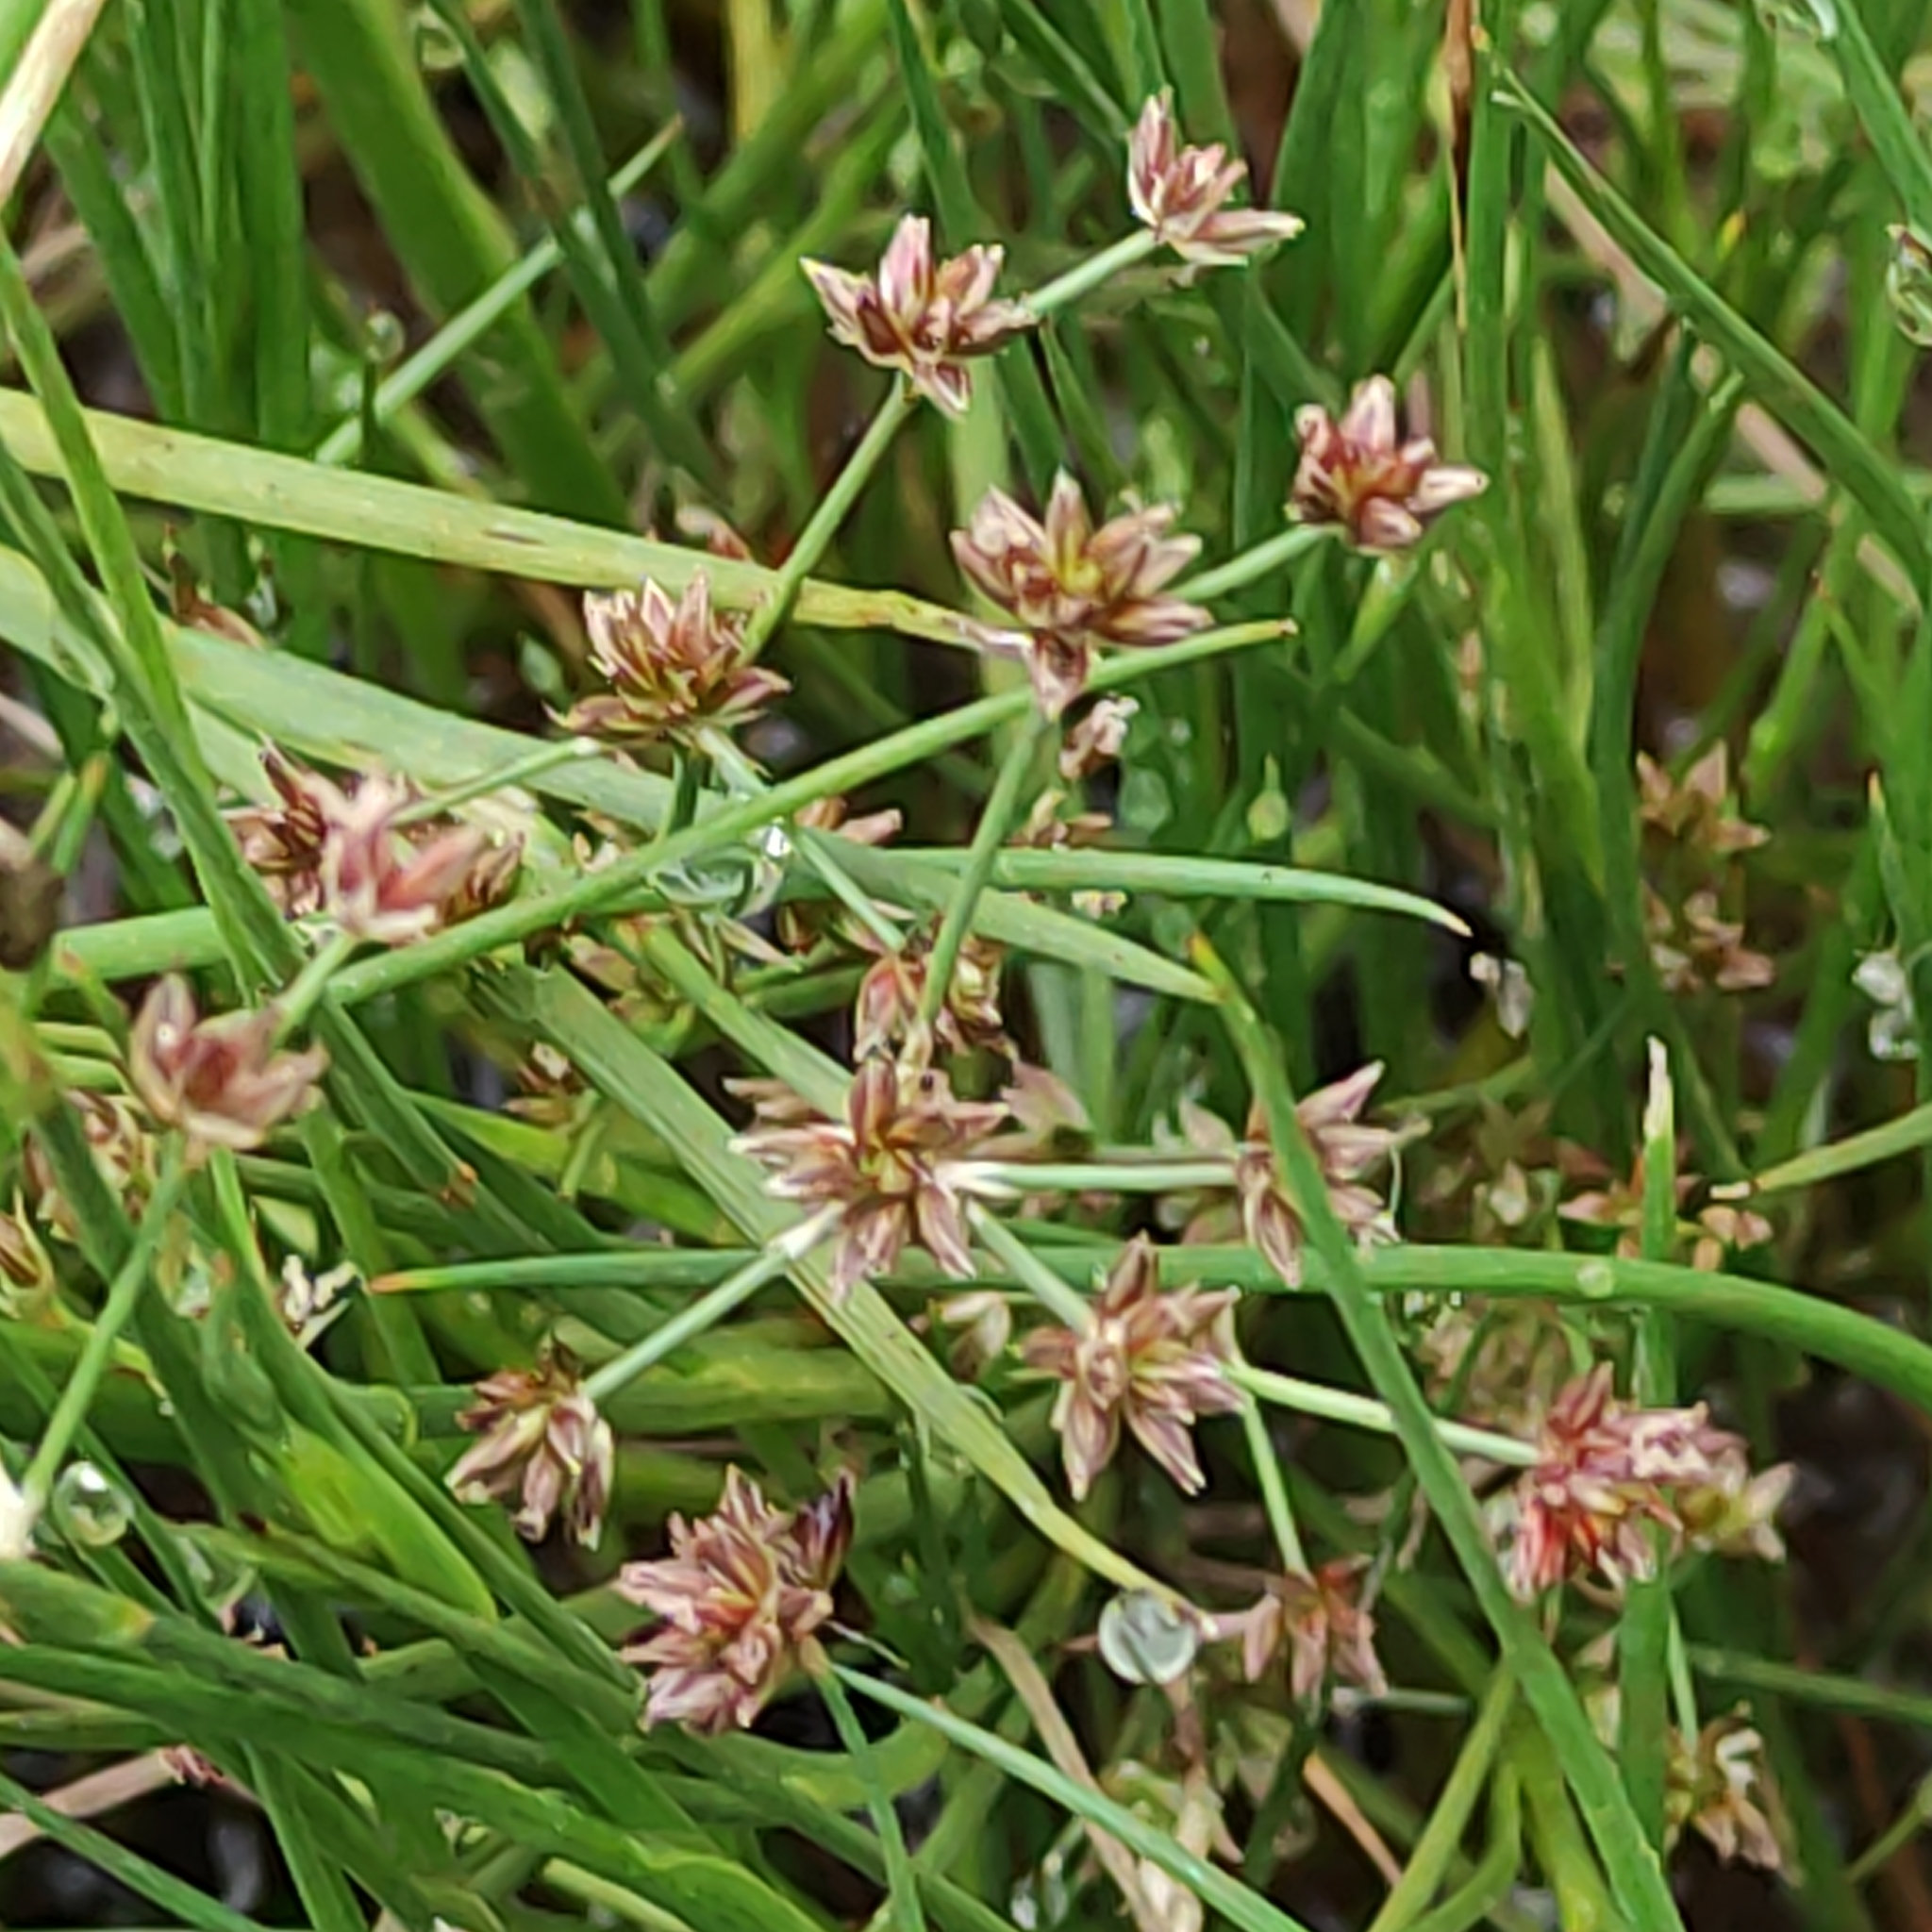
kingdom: Plantae
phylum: Tracheophyta
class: Liliopsida
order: Poales
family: Juncaceae
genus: Juncus
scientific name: Juncus articulatus
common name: Jointed rush
